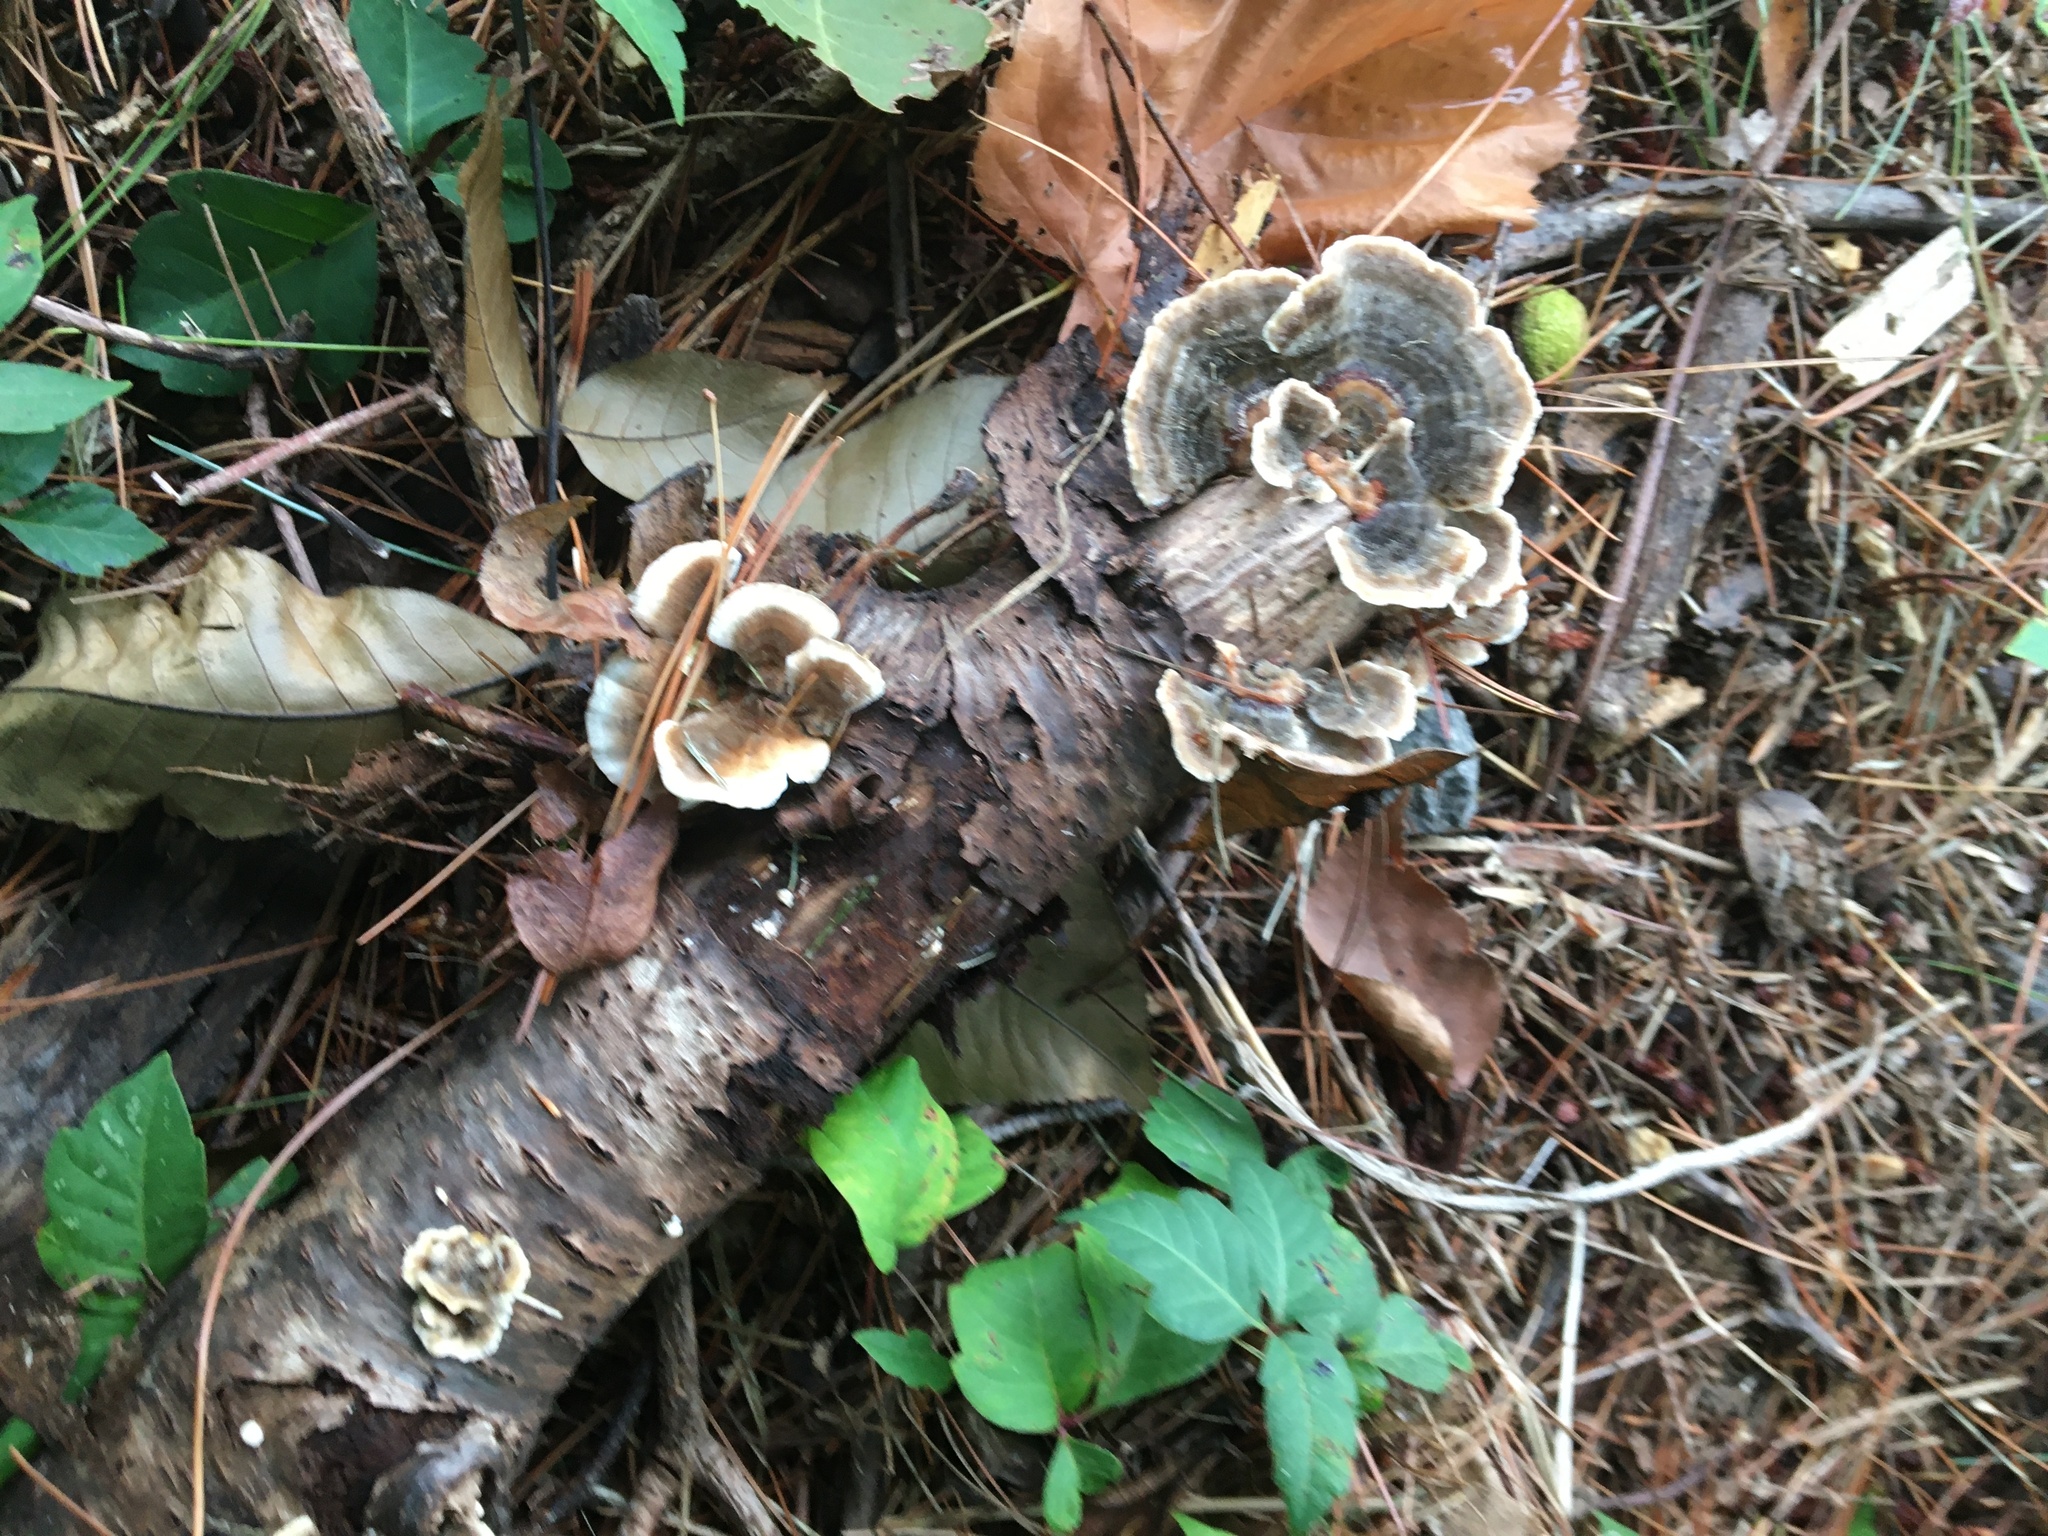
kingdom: Fungi
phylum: Basidiomycota
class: Agaricomycetes
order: Polyporales
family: Polyporaceae
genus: Trametes
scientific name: Trametes versicolor
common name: Turkeytail
